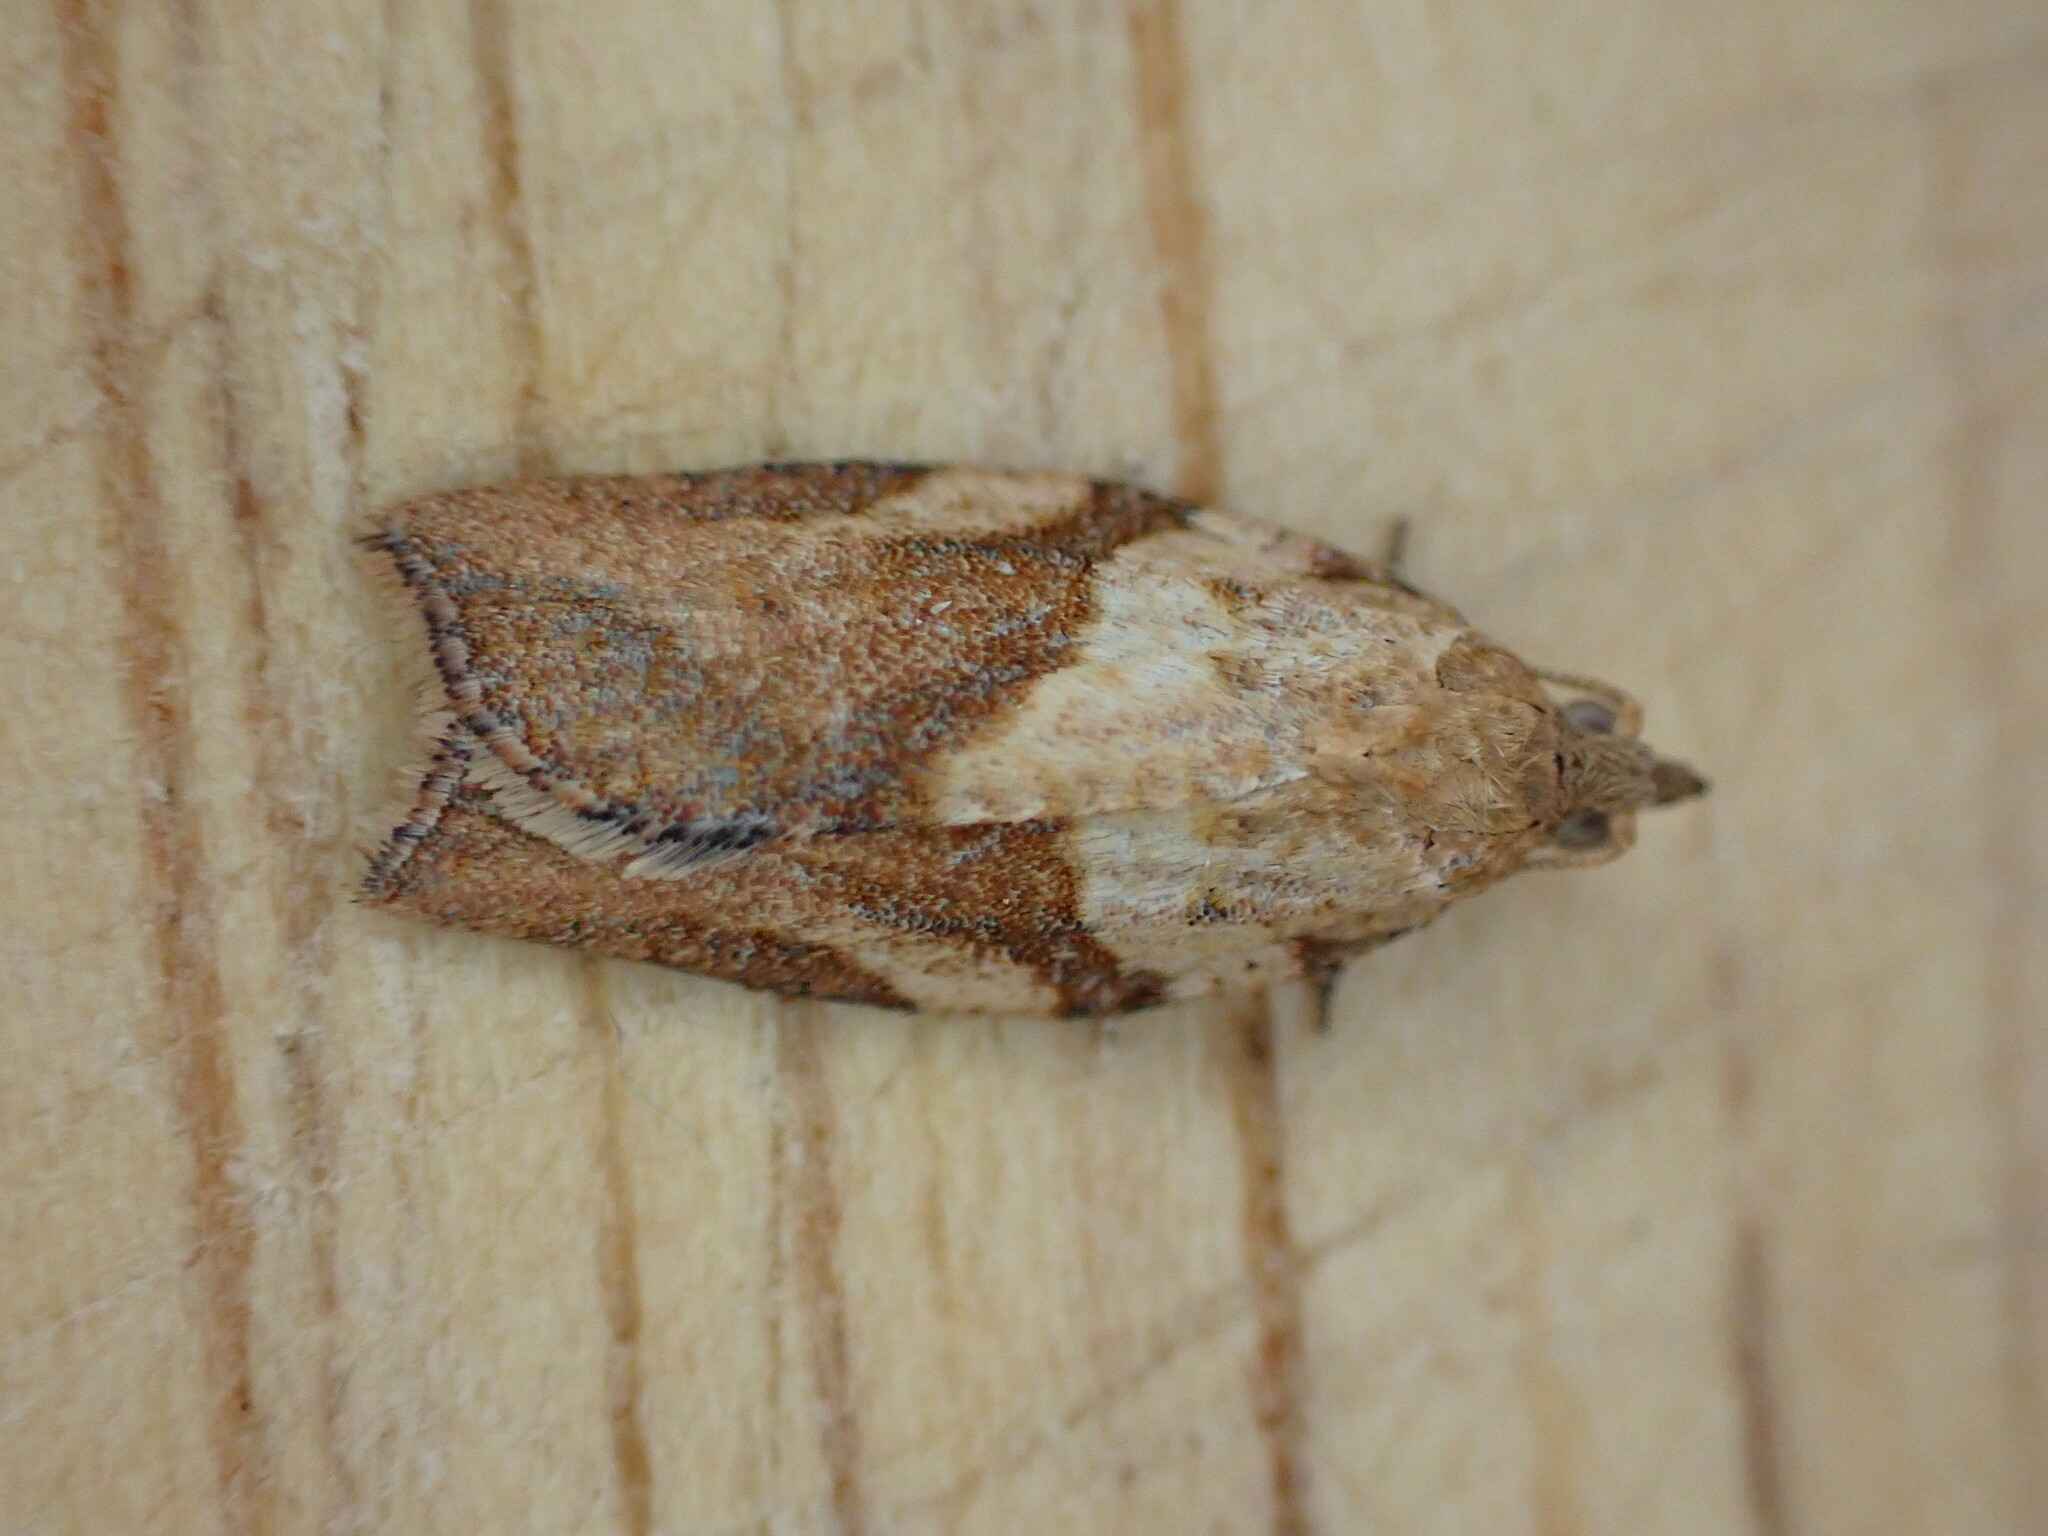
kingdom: Animalia
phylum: Arthropoda
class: Insecta
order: Lepidoptera
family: Tortricidae
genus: Epiphyas
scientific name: Epiphyas postvittana
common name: Light brown apple moth
